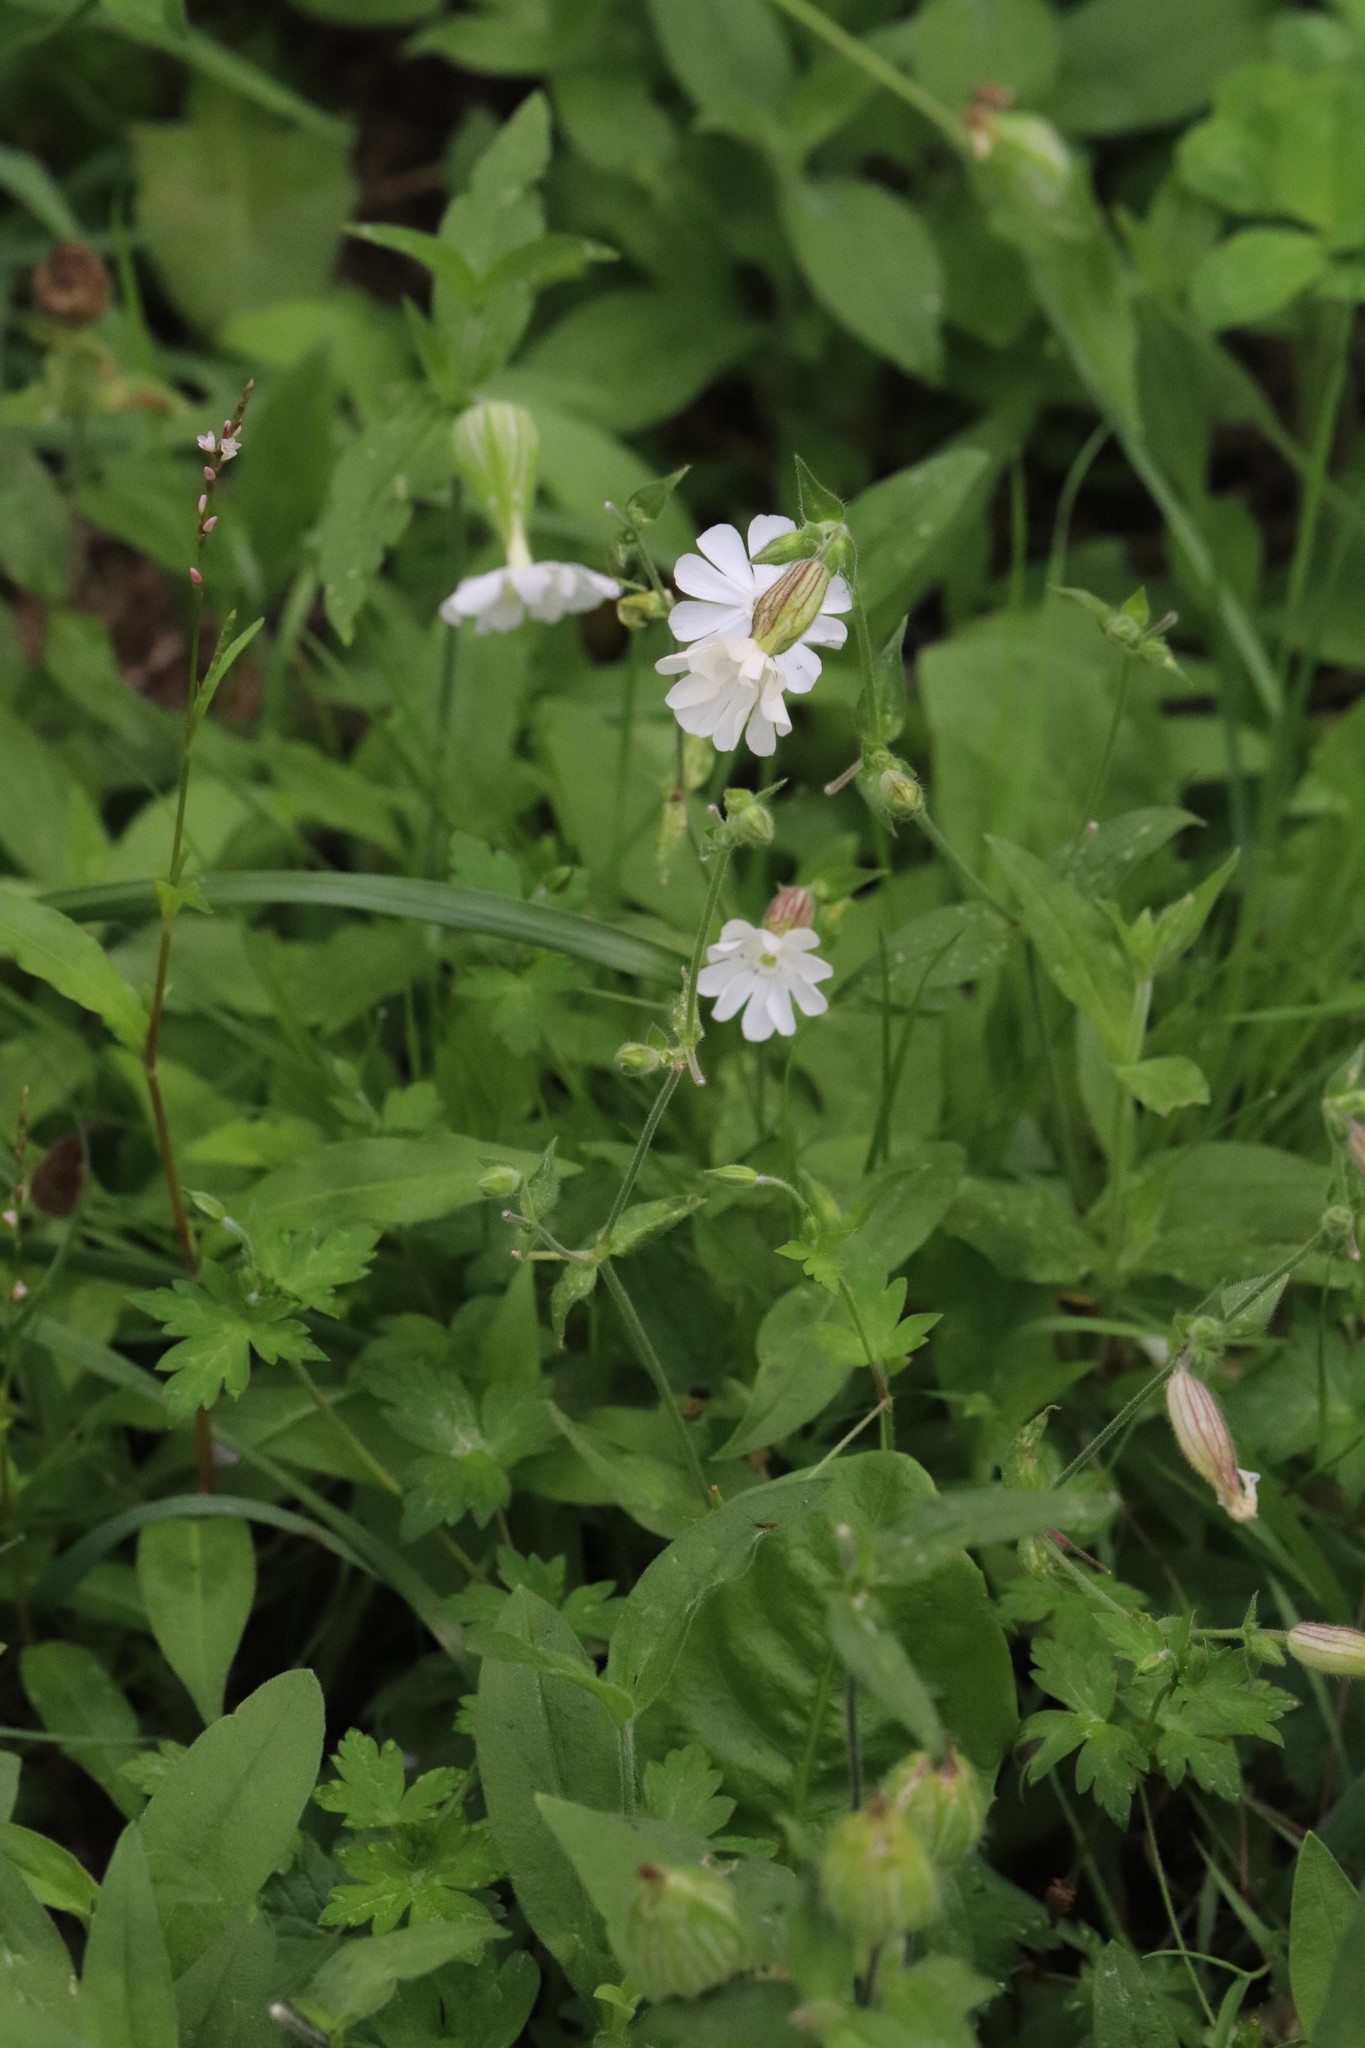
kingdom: Plantae
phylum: Tracheophyta
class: Magnoliopsida
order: Caryophyllales
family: Caryophyllaceae
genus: Silene
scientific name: Silene latifolia
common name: White campion
